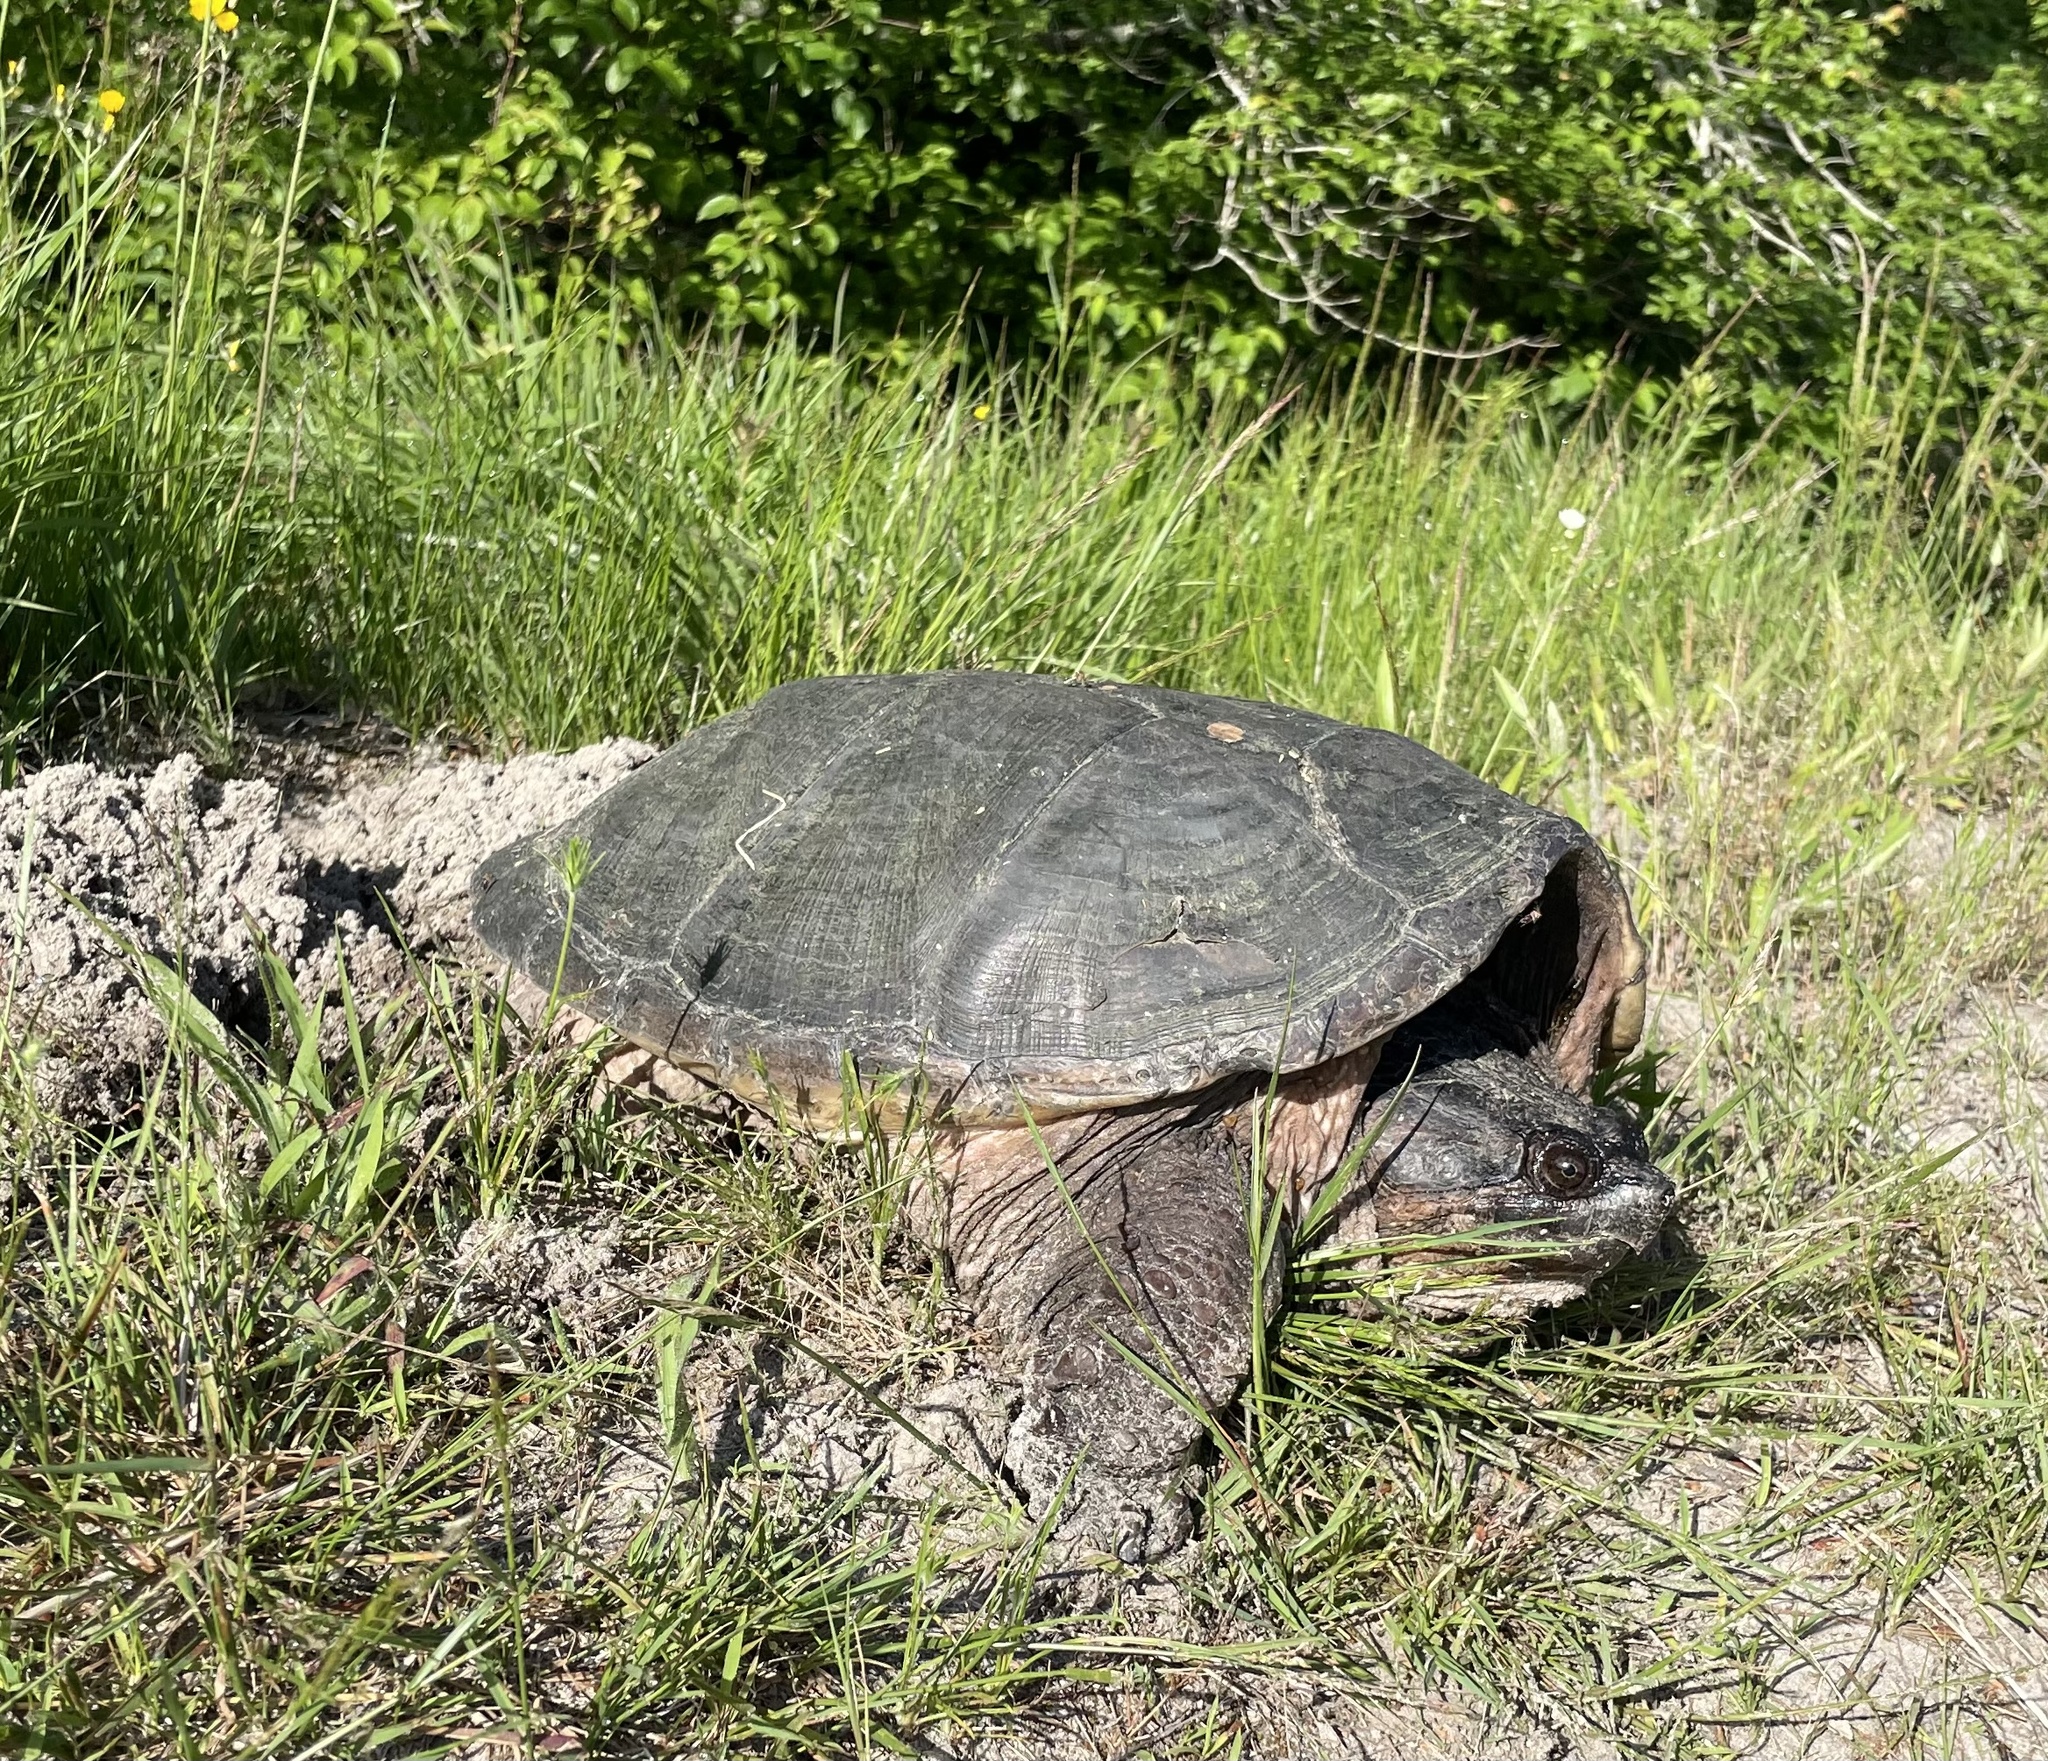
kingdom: Animalia
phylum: Chordata
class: Testudines
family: Chelydridae
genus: Chelydra
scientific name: Chelydra serpentina
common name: Common snapping turtle
